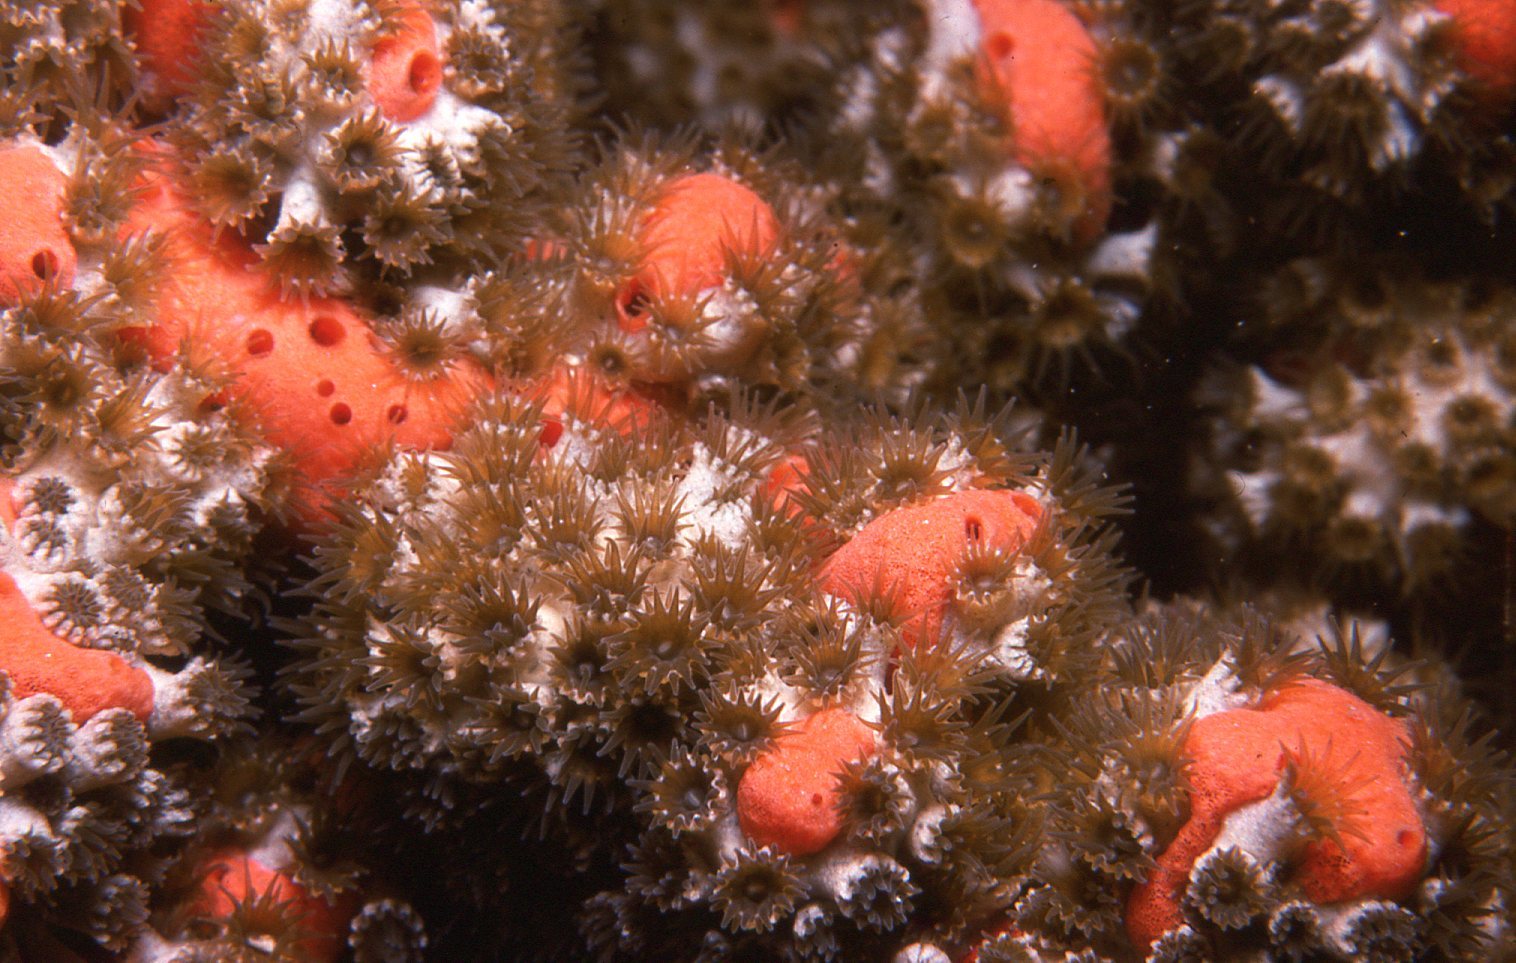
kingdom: Animalia
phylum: Cnidaria
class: Anthozoa
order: Zoantharia
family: Epizoanthidae
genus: Epizoanthus
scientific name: Epizoanthus sabulosus
